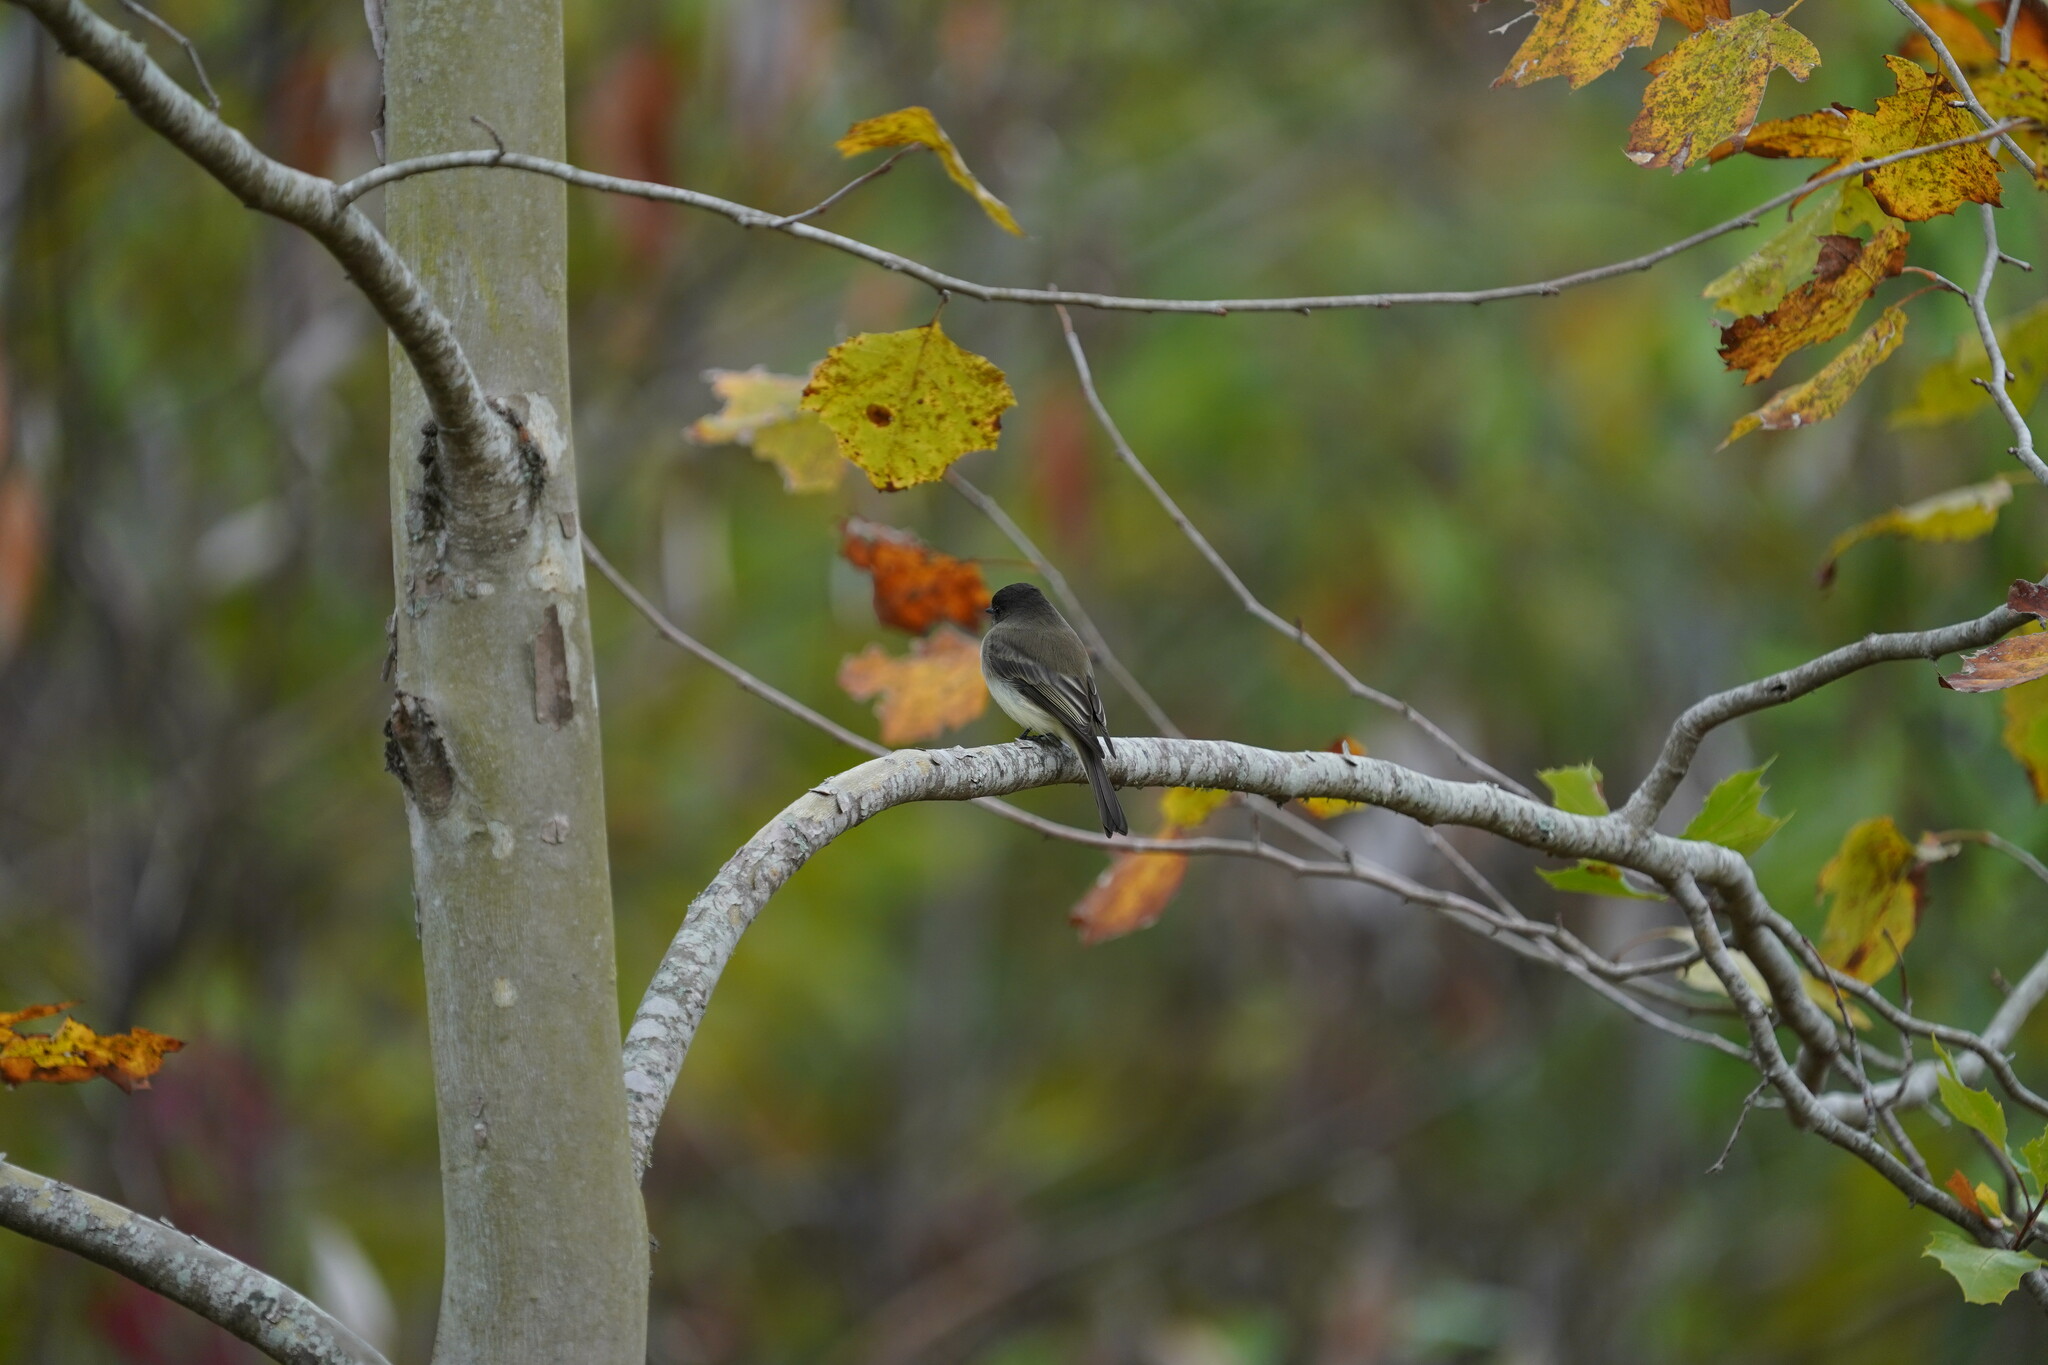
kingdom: Animalia
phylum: Chordata
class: Aves
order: Passeriformes
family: Tyrannidae
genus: Sayornis
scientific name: Sayornis phoebe
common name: Eastern phoebe
